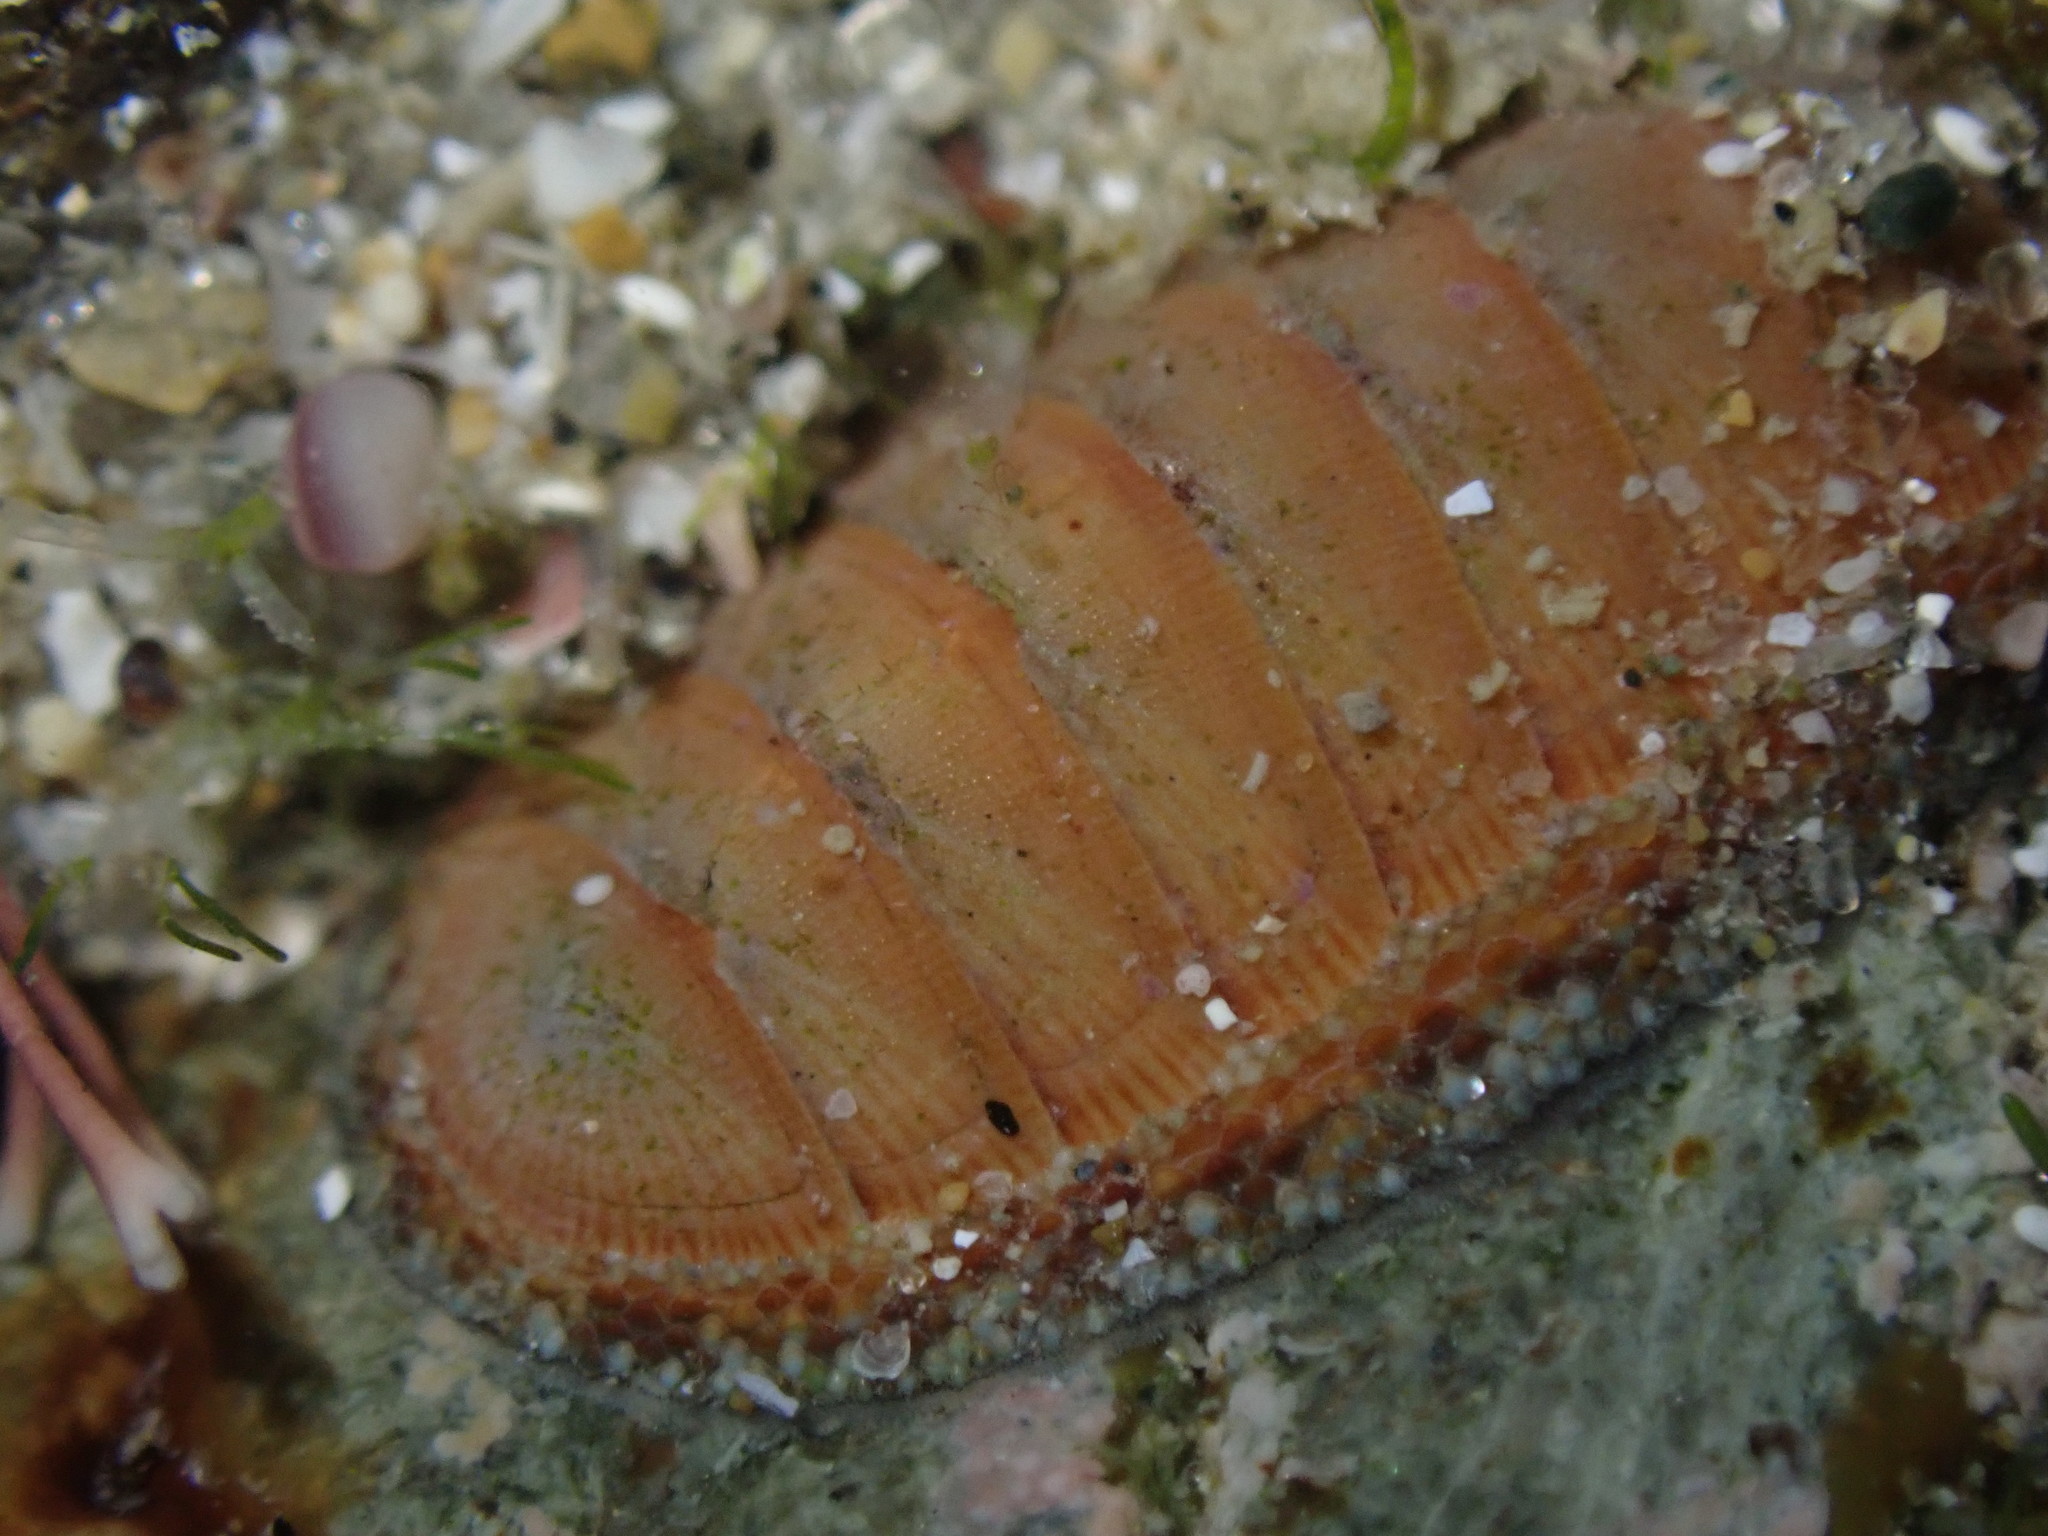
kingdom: Animalia
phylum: Mollusca
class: Polyplacophora
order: Chitonida
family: Chitonidae
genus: Chiton
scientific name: Chiton glaucus
